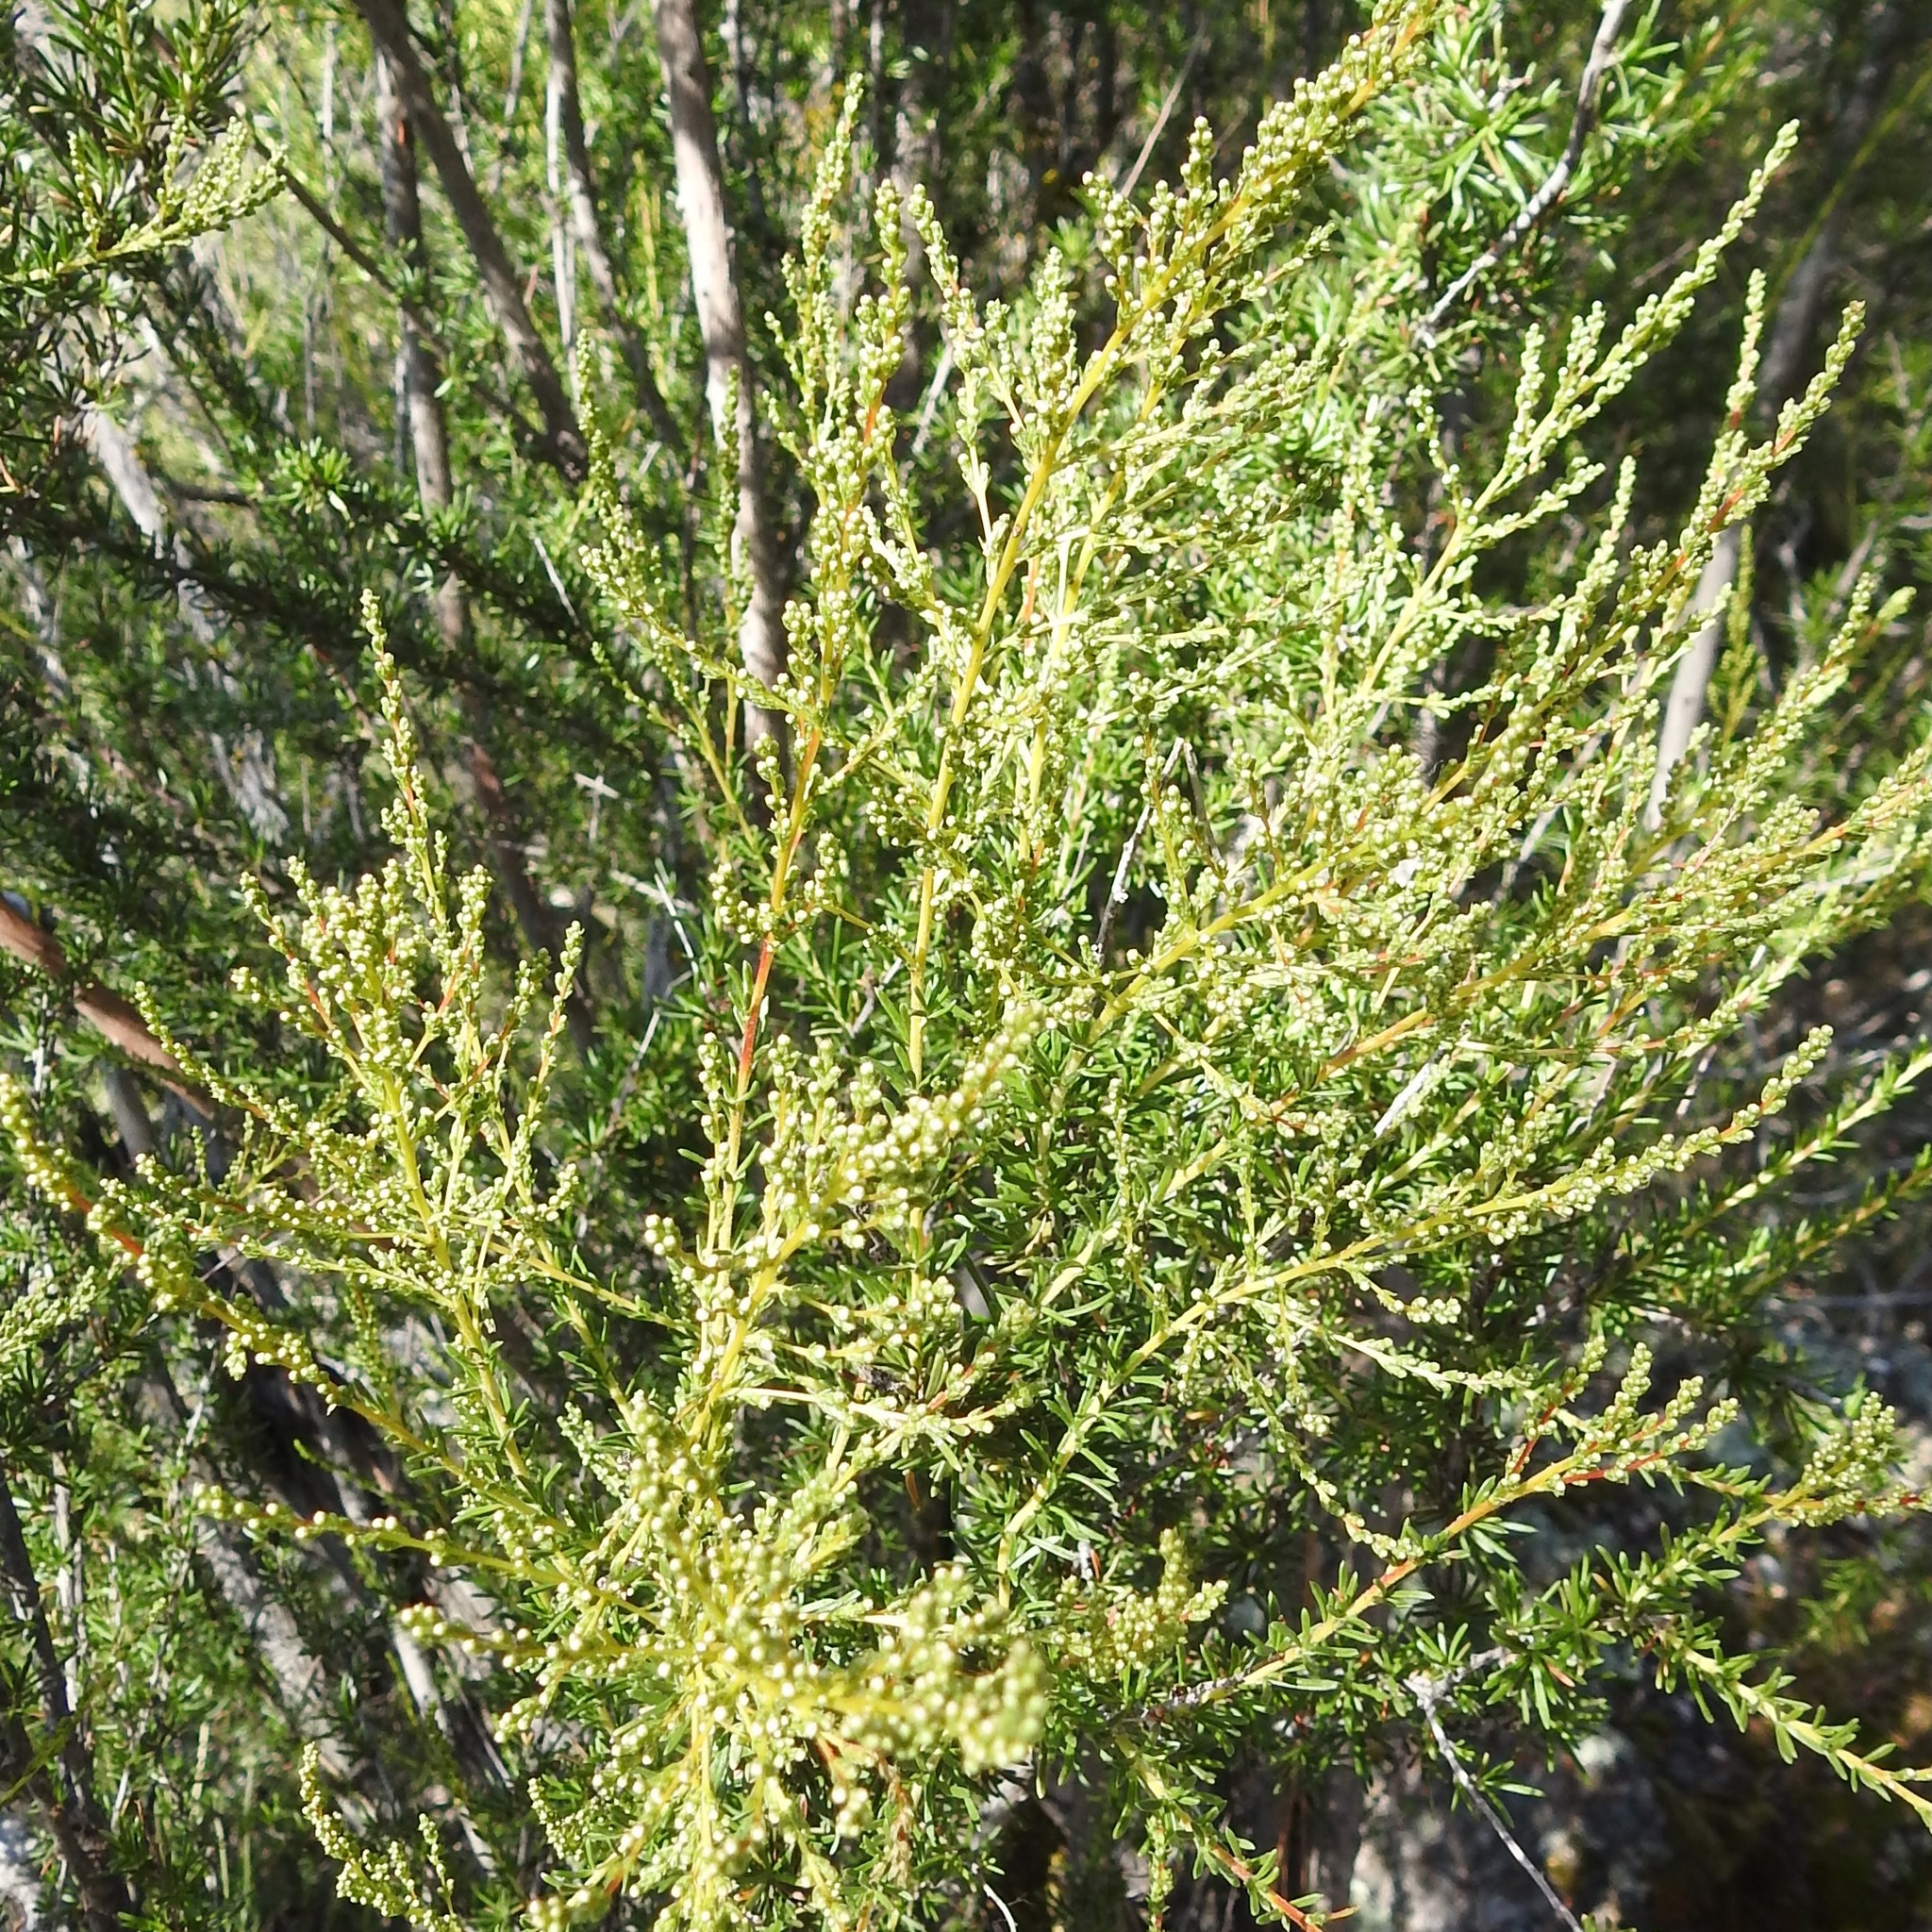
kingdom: Plantae
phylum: Tracheophyta
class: Magnoliopsida
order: Rosales
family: Rosaceae
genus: Adenostoma
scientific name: Adenostoma fasciculatum
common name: Chamise
